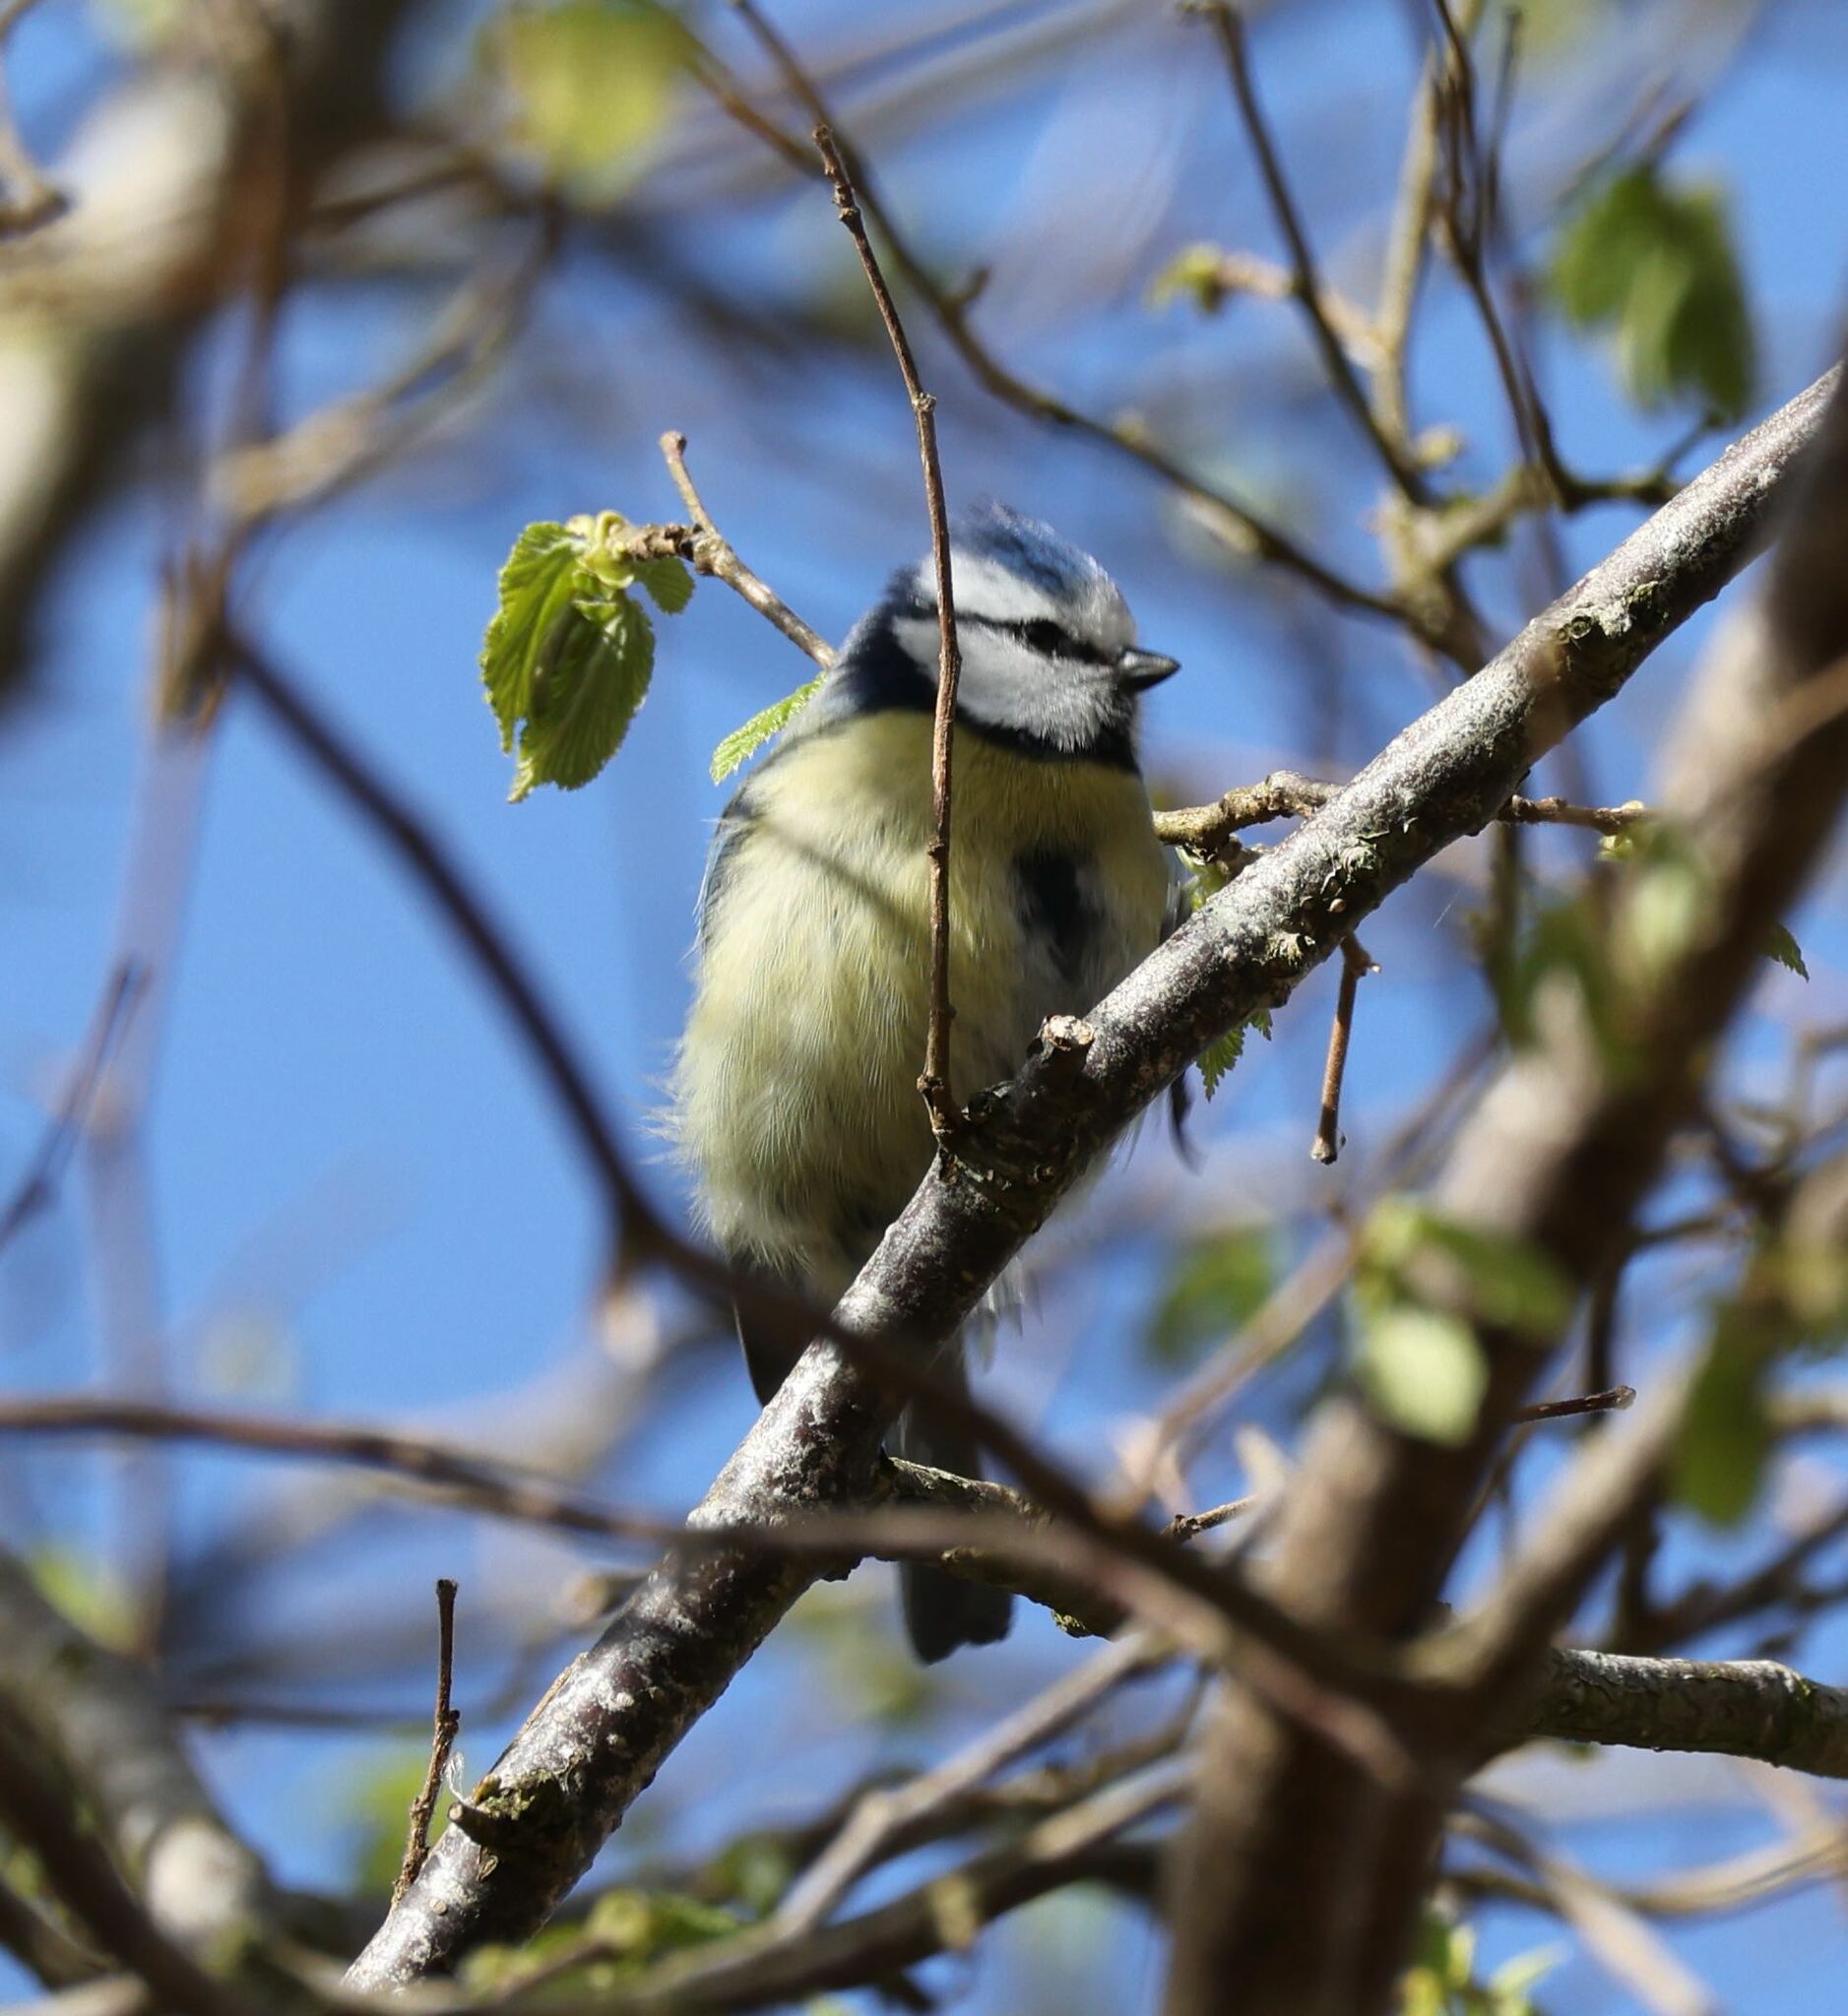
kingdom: Animalia
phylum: Chordata
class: Aves
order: Passeriformes
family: Paridae
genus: Cyanistes
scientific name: Cyanistes caeruleus
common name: Eurasian blue tit
